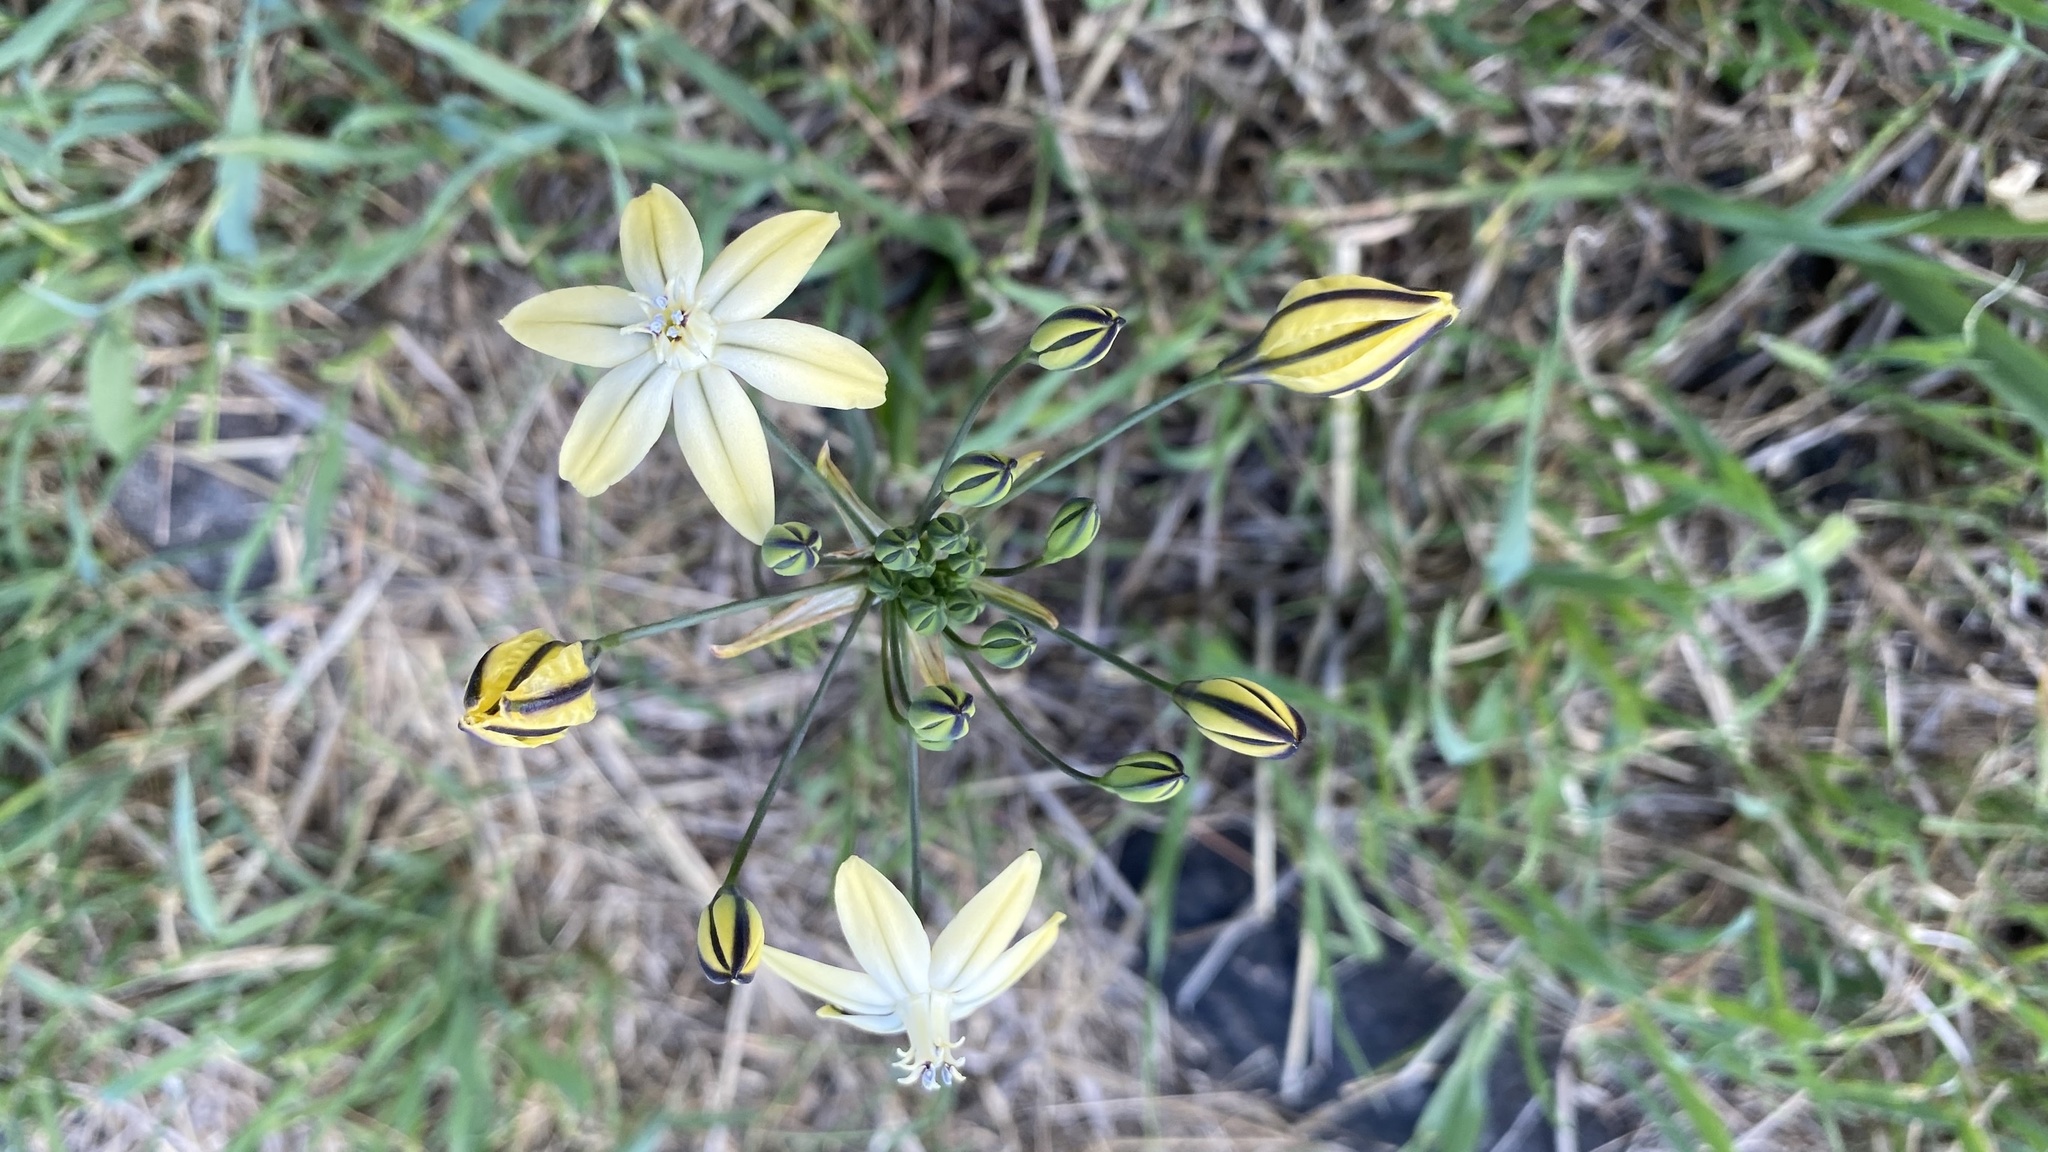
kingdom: Plantae
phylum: Tracheophyta
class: Liliopsida
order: Asparagales
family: Asparagaceae
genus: Triteleia
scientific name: Triteleia ixioides
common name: Yellow-brodiaea
